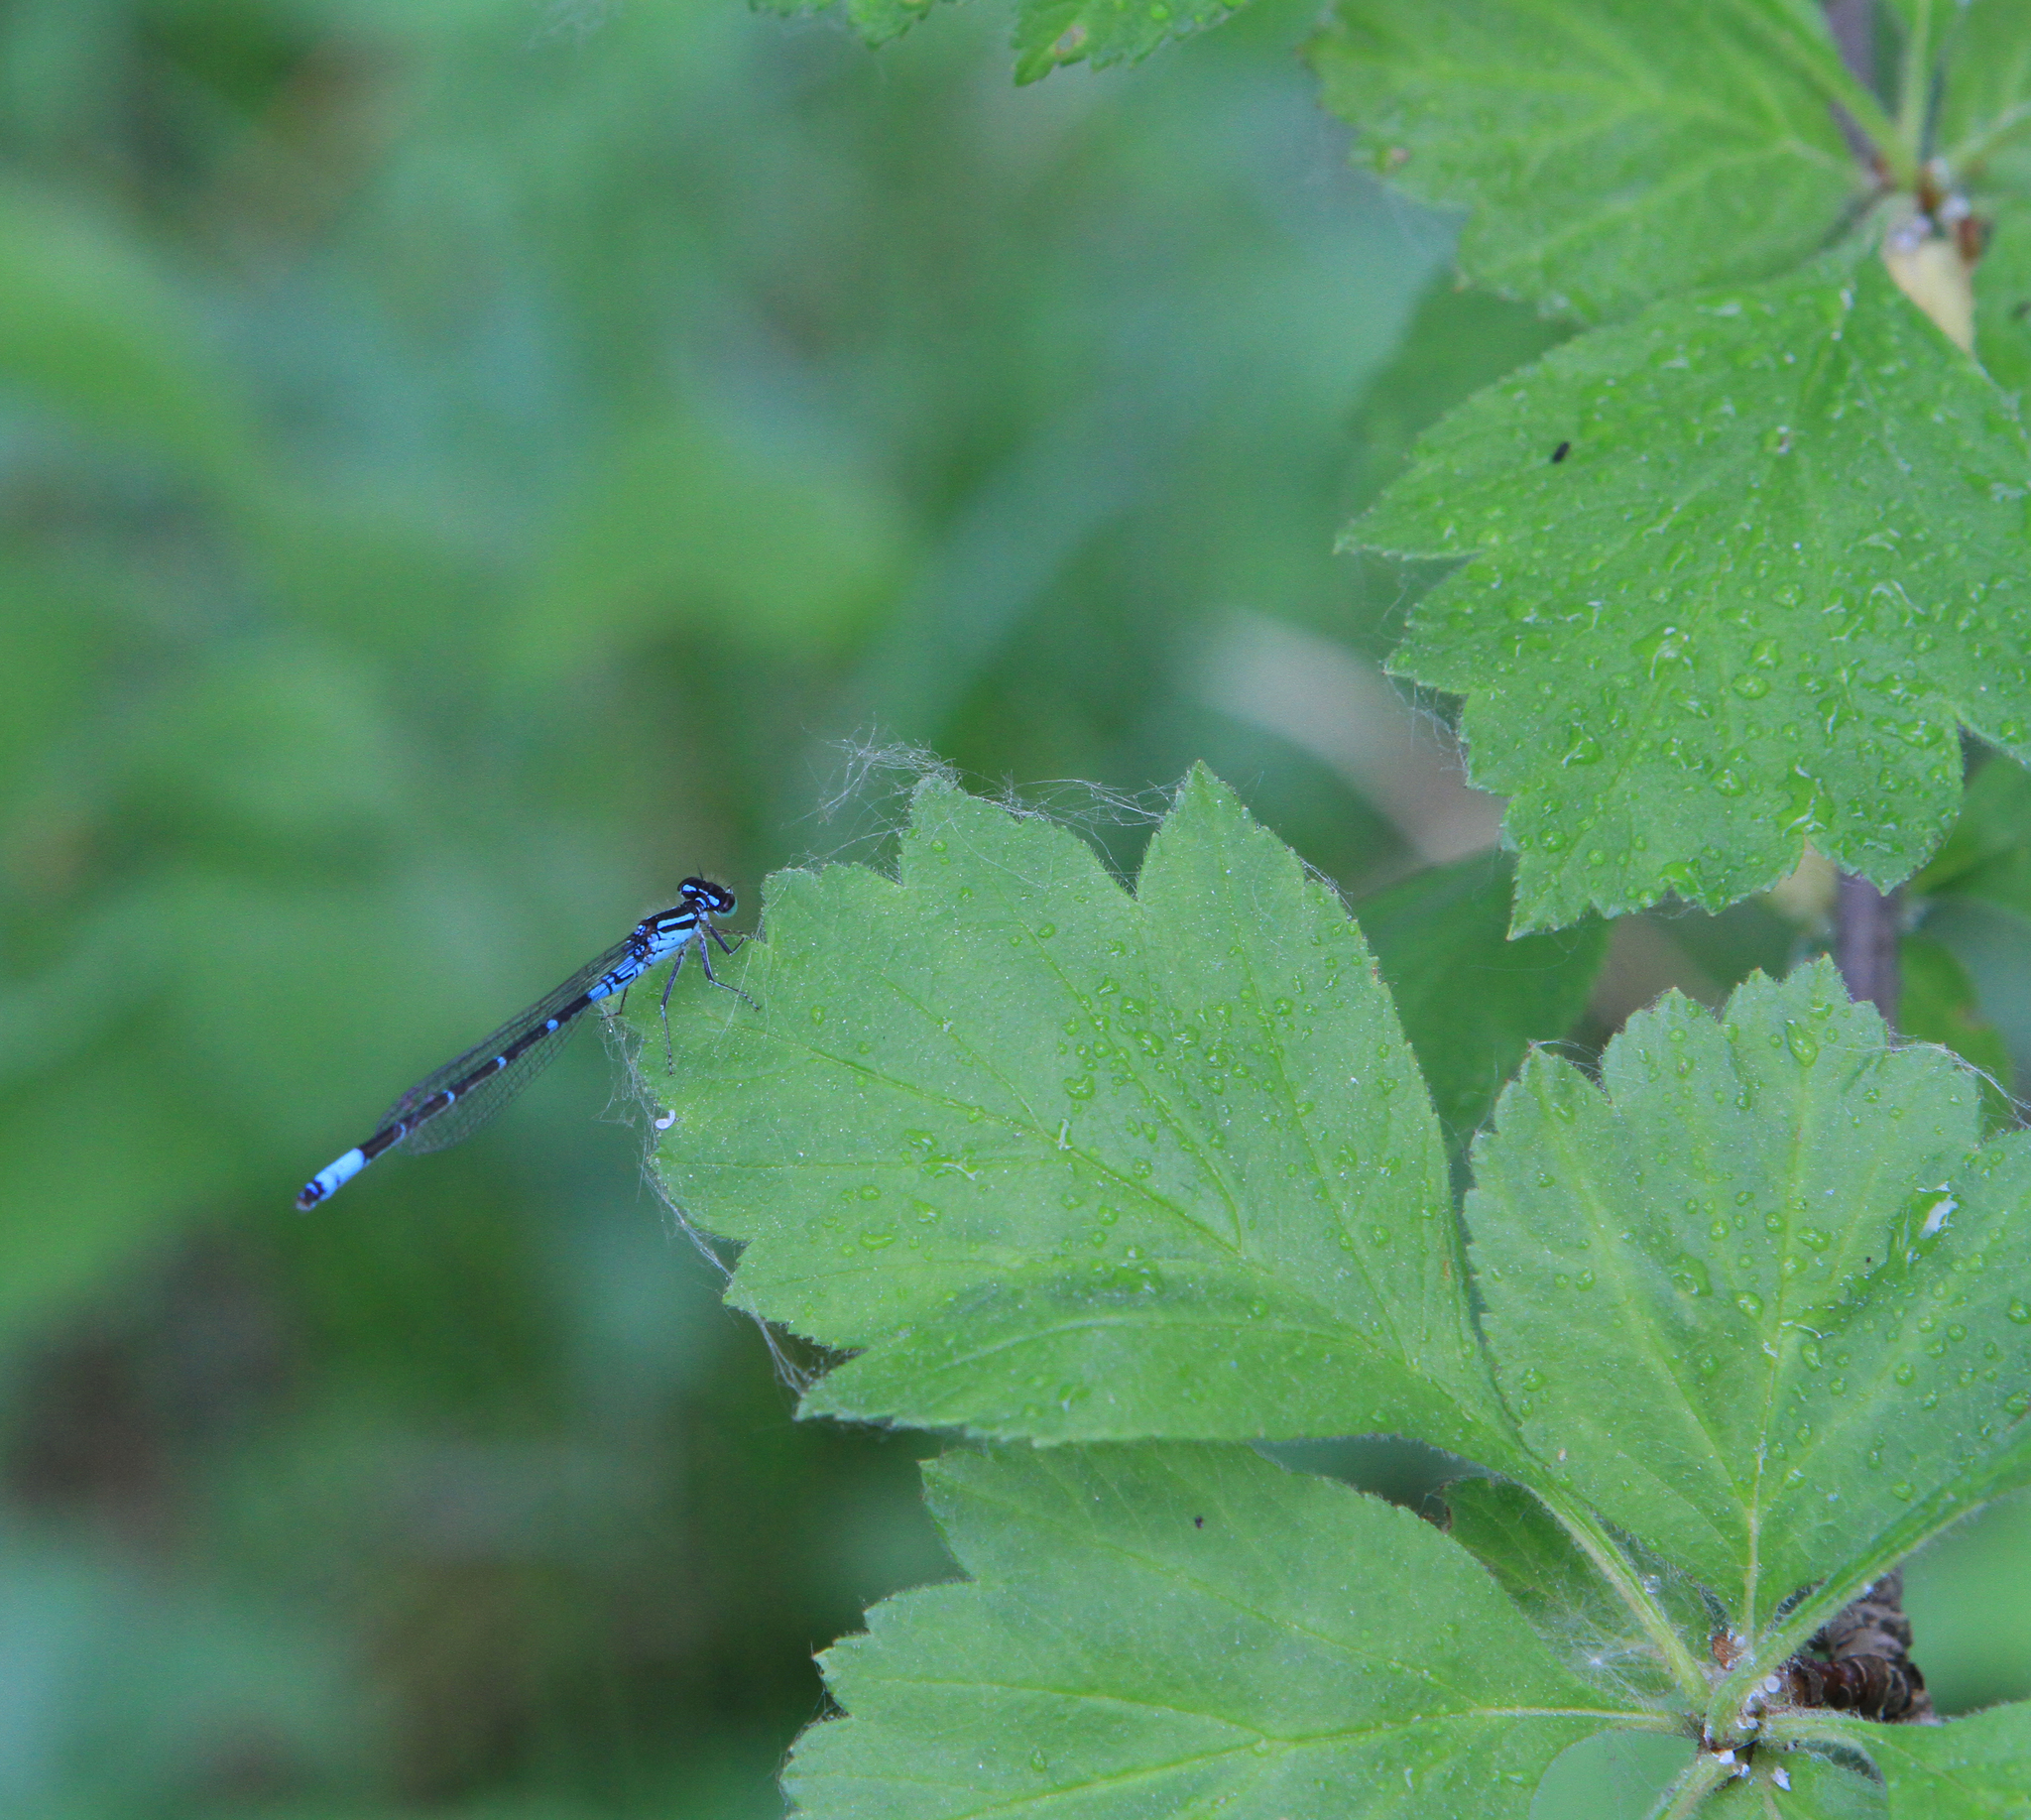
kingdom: Plantae
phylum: Tracheophyta
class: Magnoliopsida
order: Rosales
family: Rosaceae
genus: Crataegus
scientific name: Crataegus sanguinea
